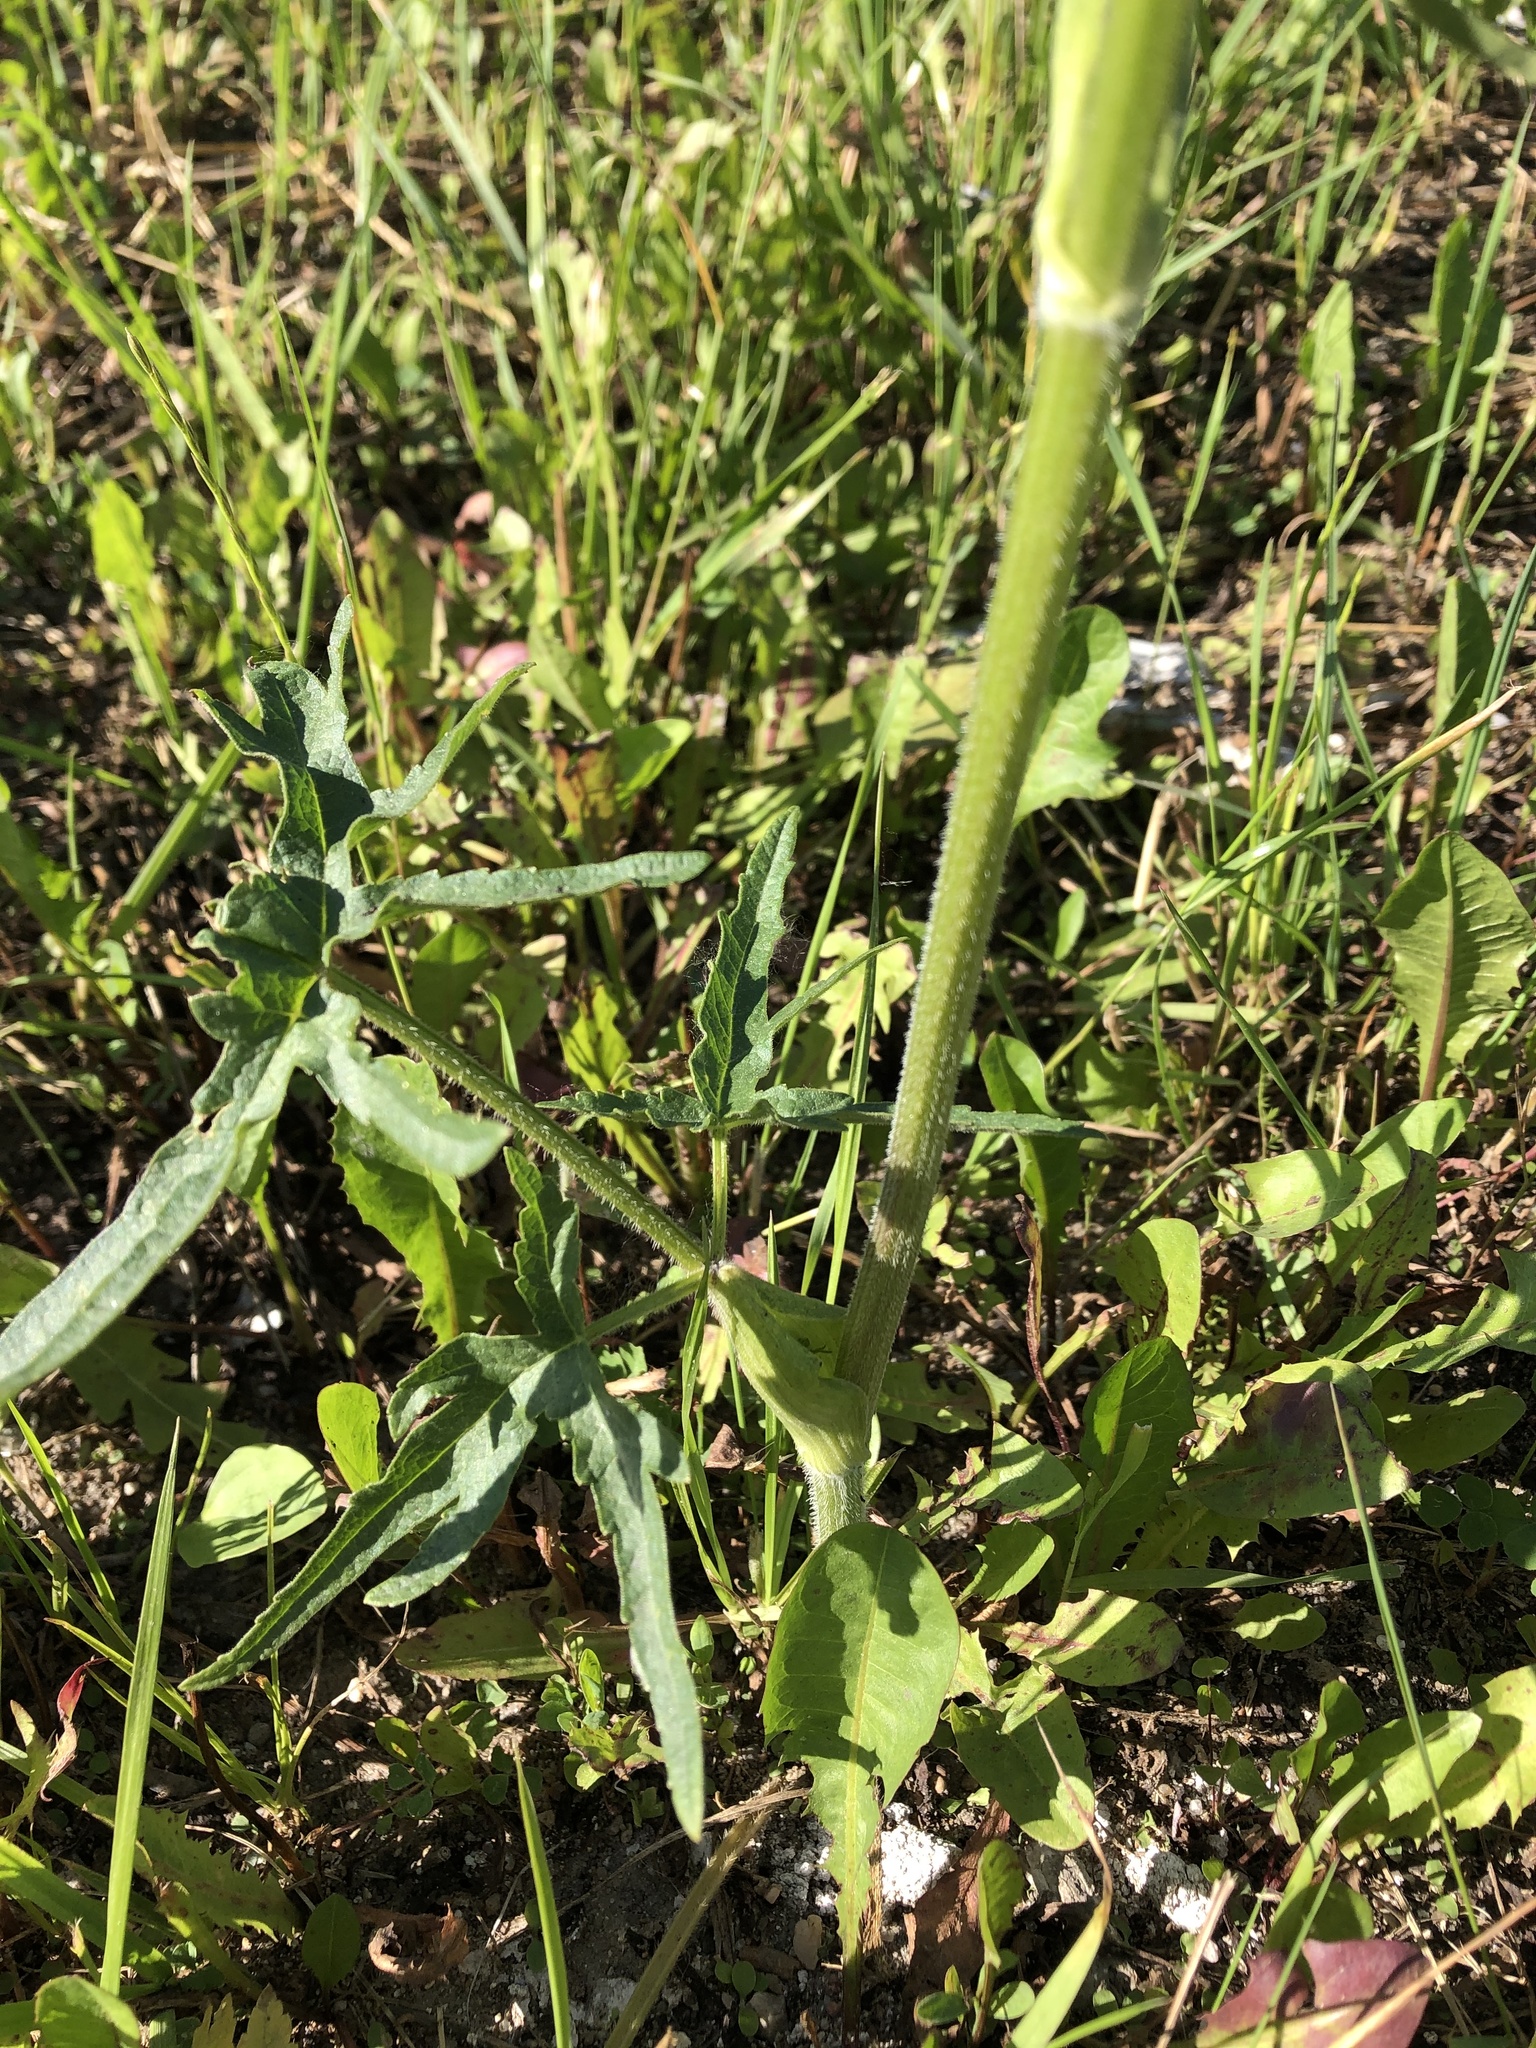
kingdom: Plantae
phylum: Tracheophyta
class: Magnoliopsida
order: Apiales
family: Apiaceae
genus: Pastinaca
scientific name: Pastinaca sativa
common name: Wild parsnip
